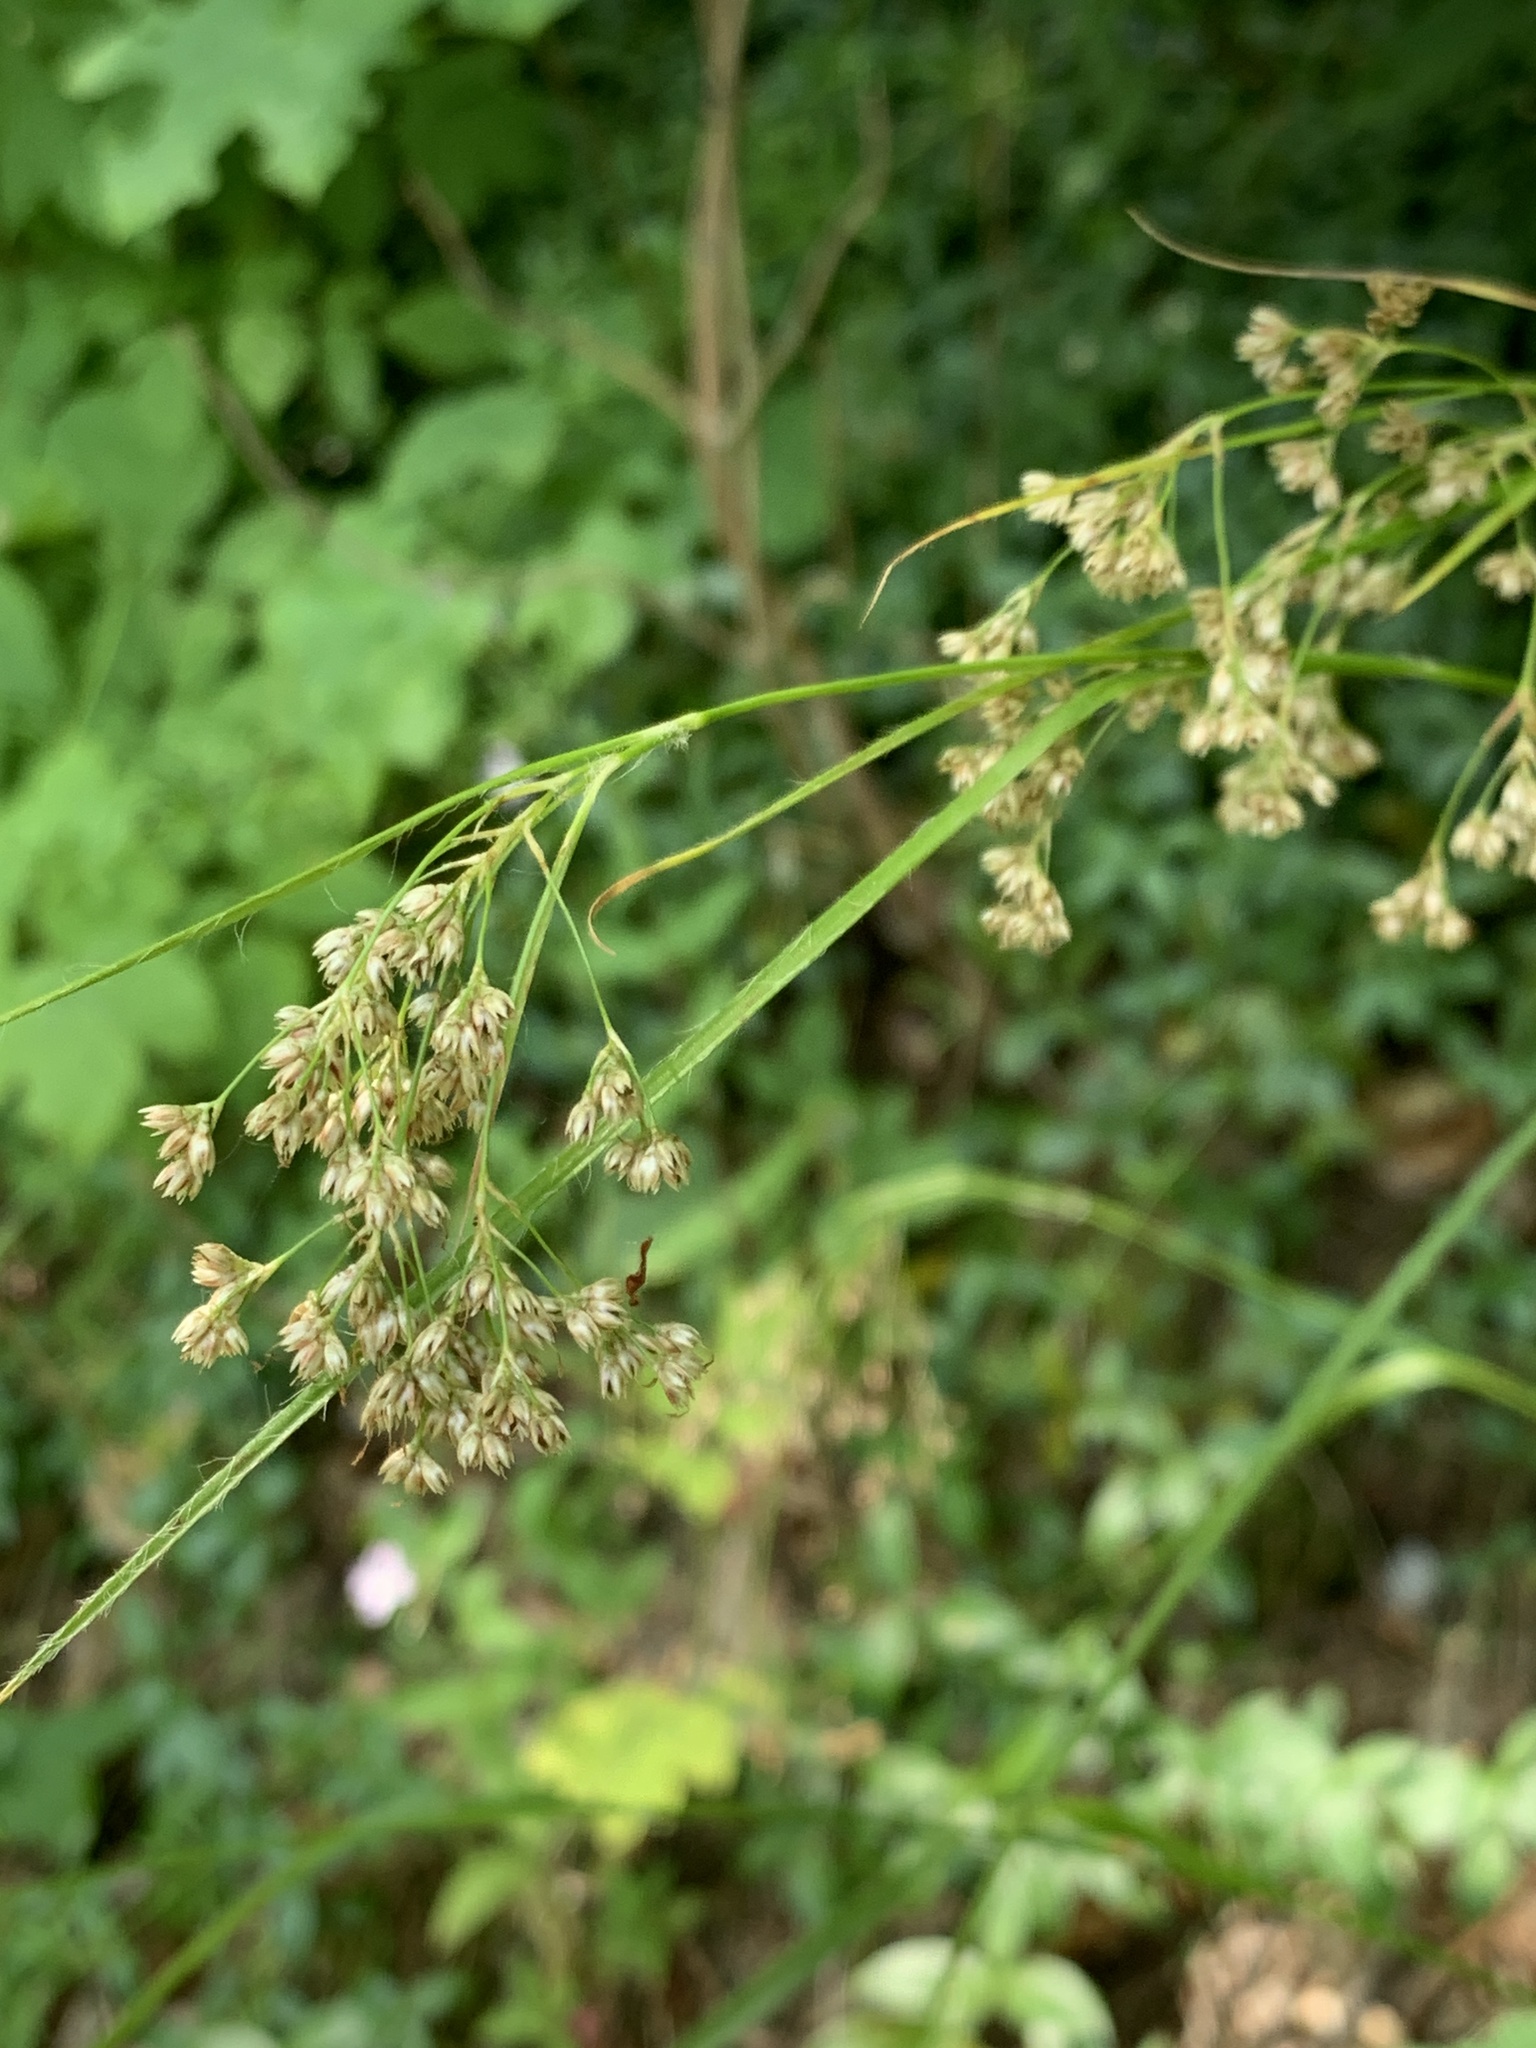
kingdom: Plantae
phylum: Tracheophyta
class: Liliopsida
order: Poales
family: Juncaceae
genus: Luzula
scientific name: Luzula luzuloides
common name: White wood-rush
